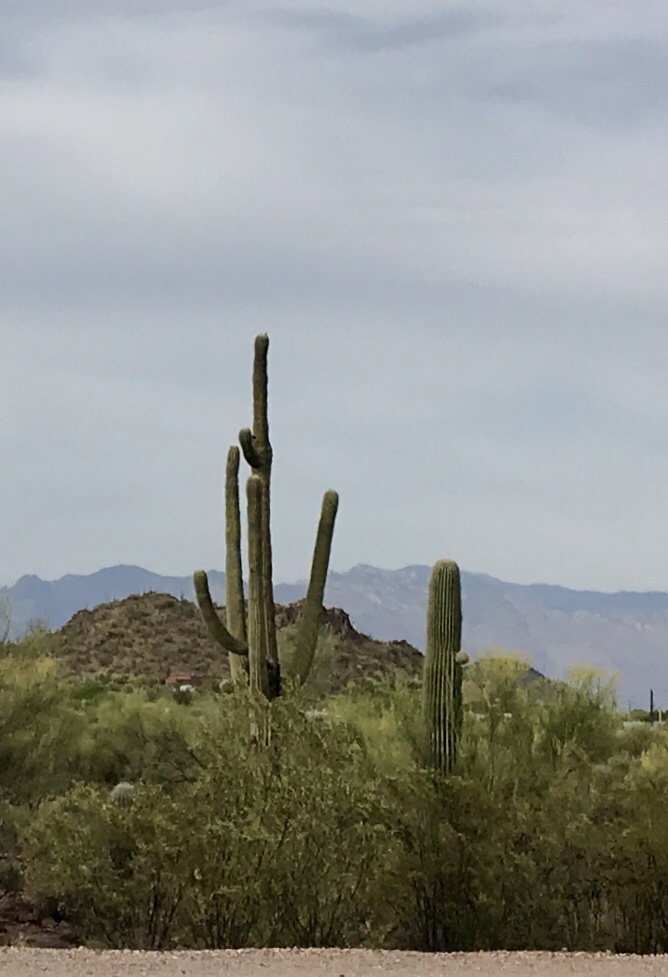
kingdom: Plantae
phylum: Tracheophyta
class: Magnoliopsida
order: Caryophyllales
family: Cactaceae
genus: Carnegiea
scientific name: Carnegiea gigantea
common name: Saguaro
